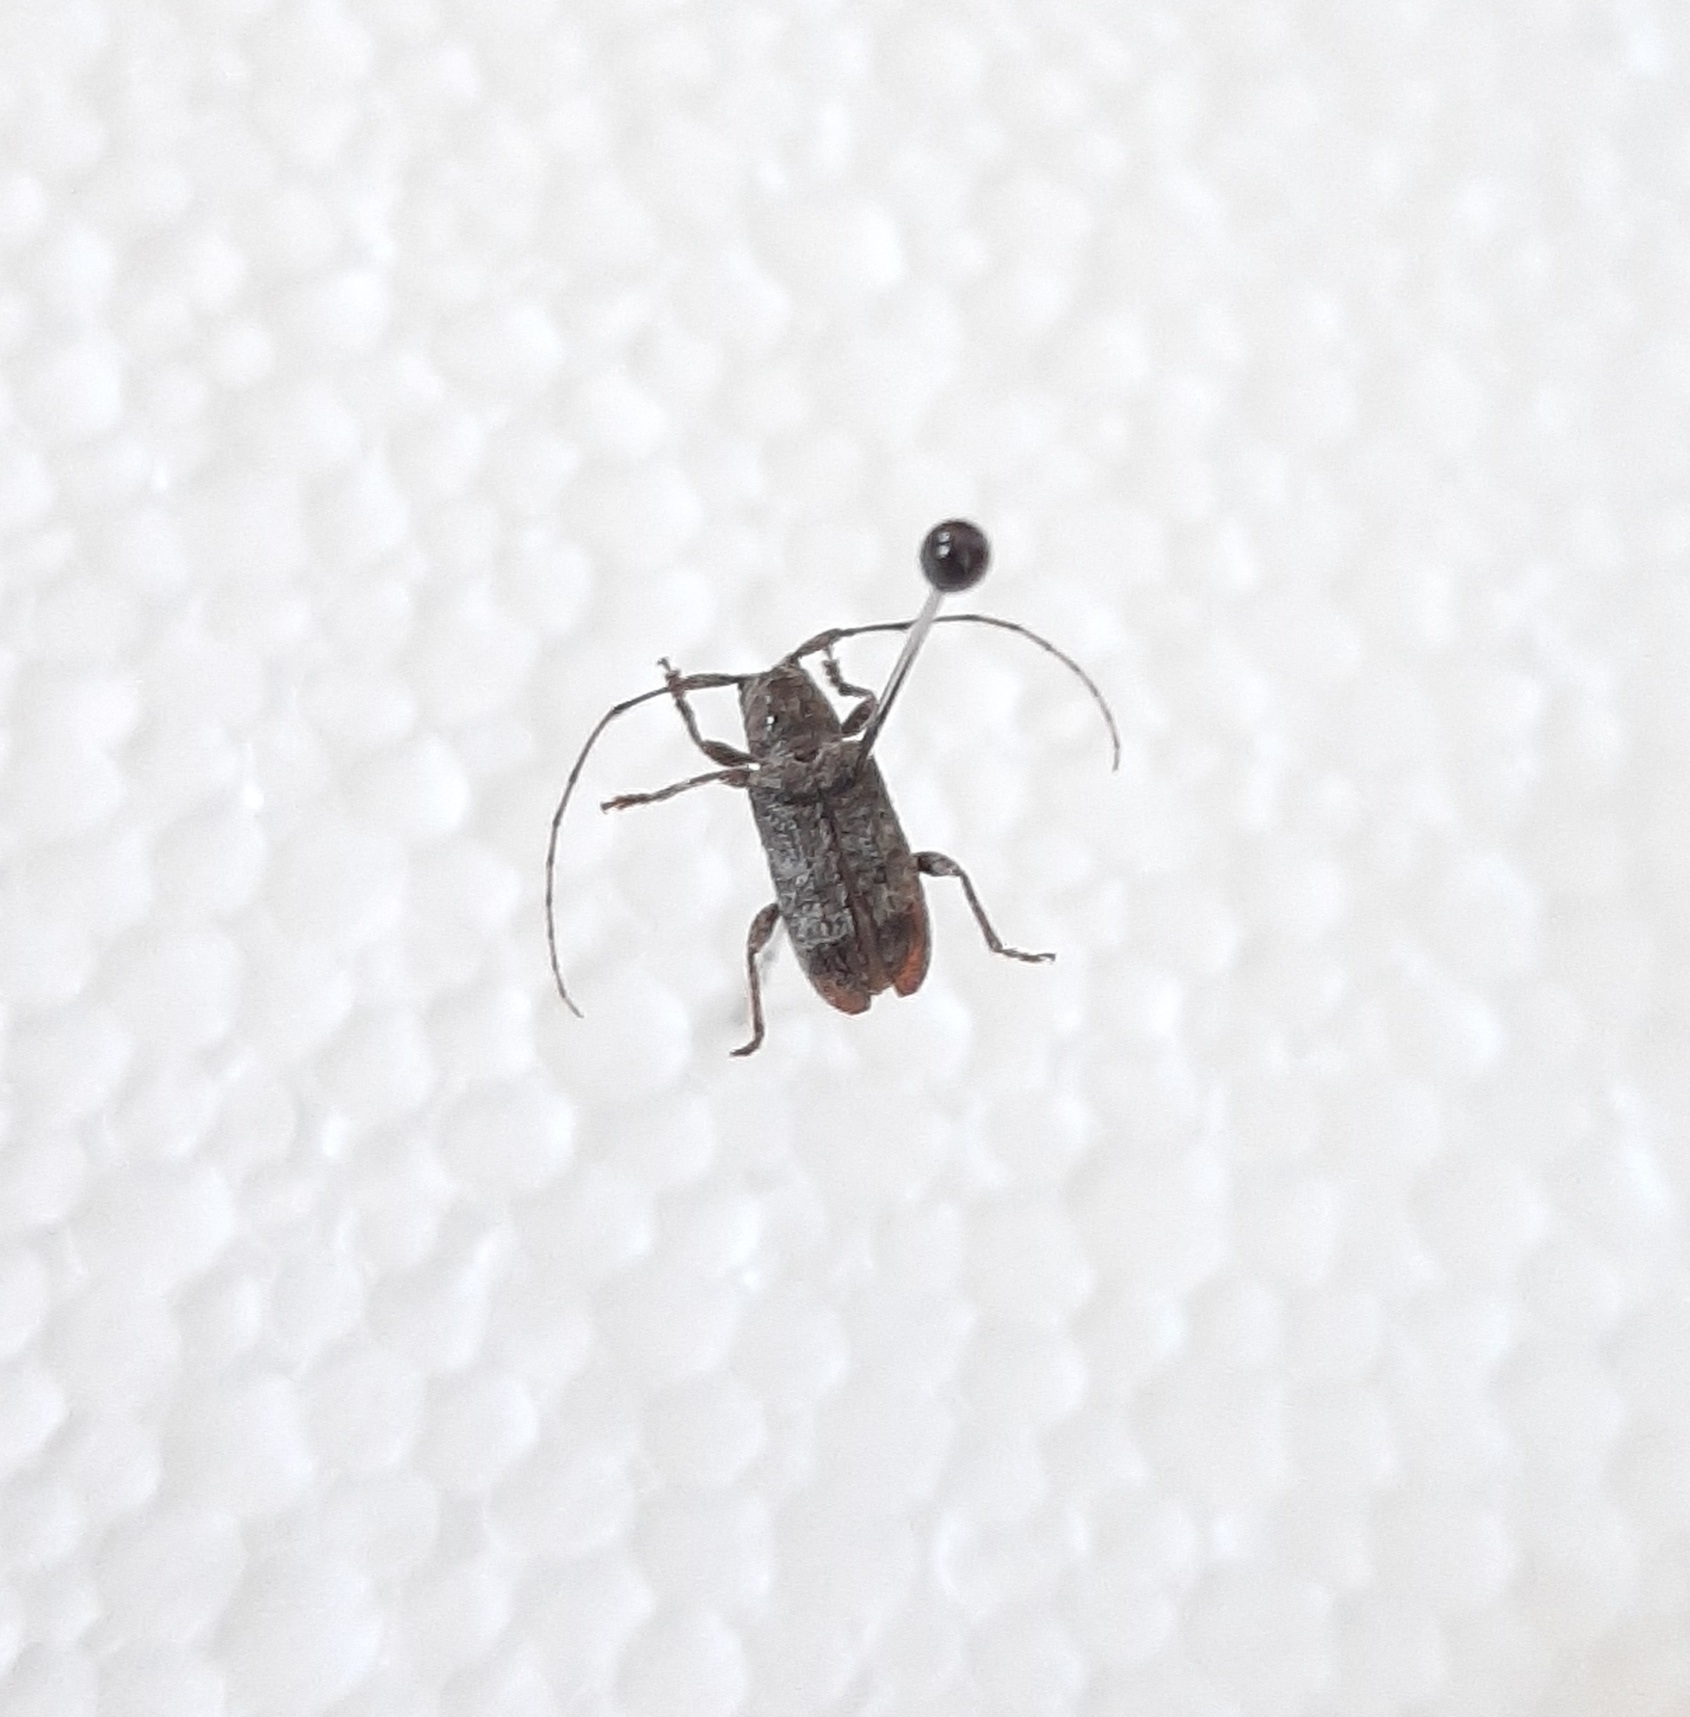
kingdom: Animalia
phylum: Arthropoda
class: Insecta
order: Coleoptera
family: Cerambycidae
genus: Ecyrus
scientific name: Ecyrus dasycerus
